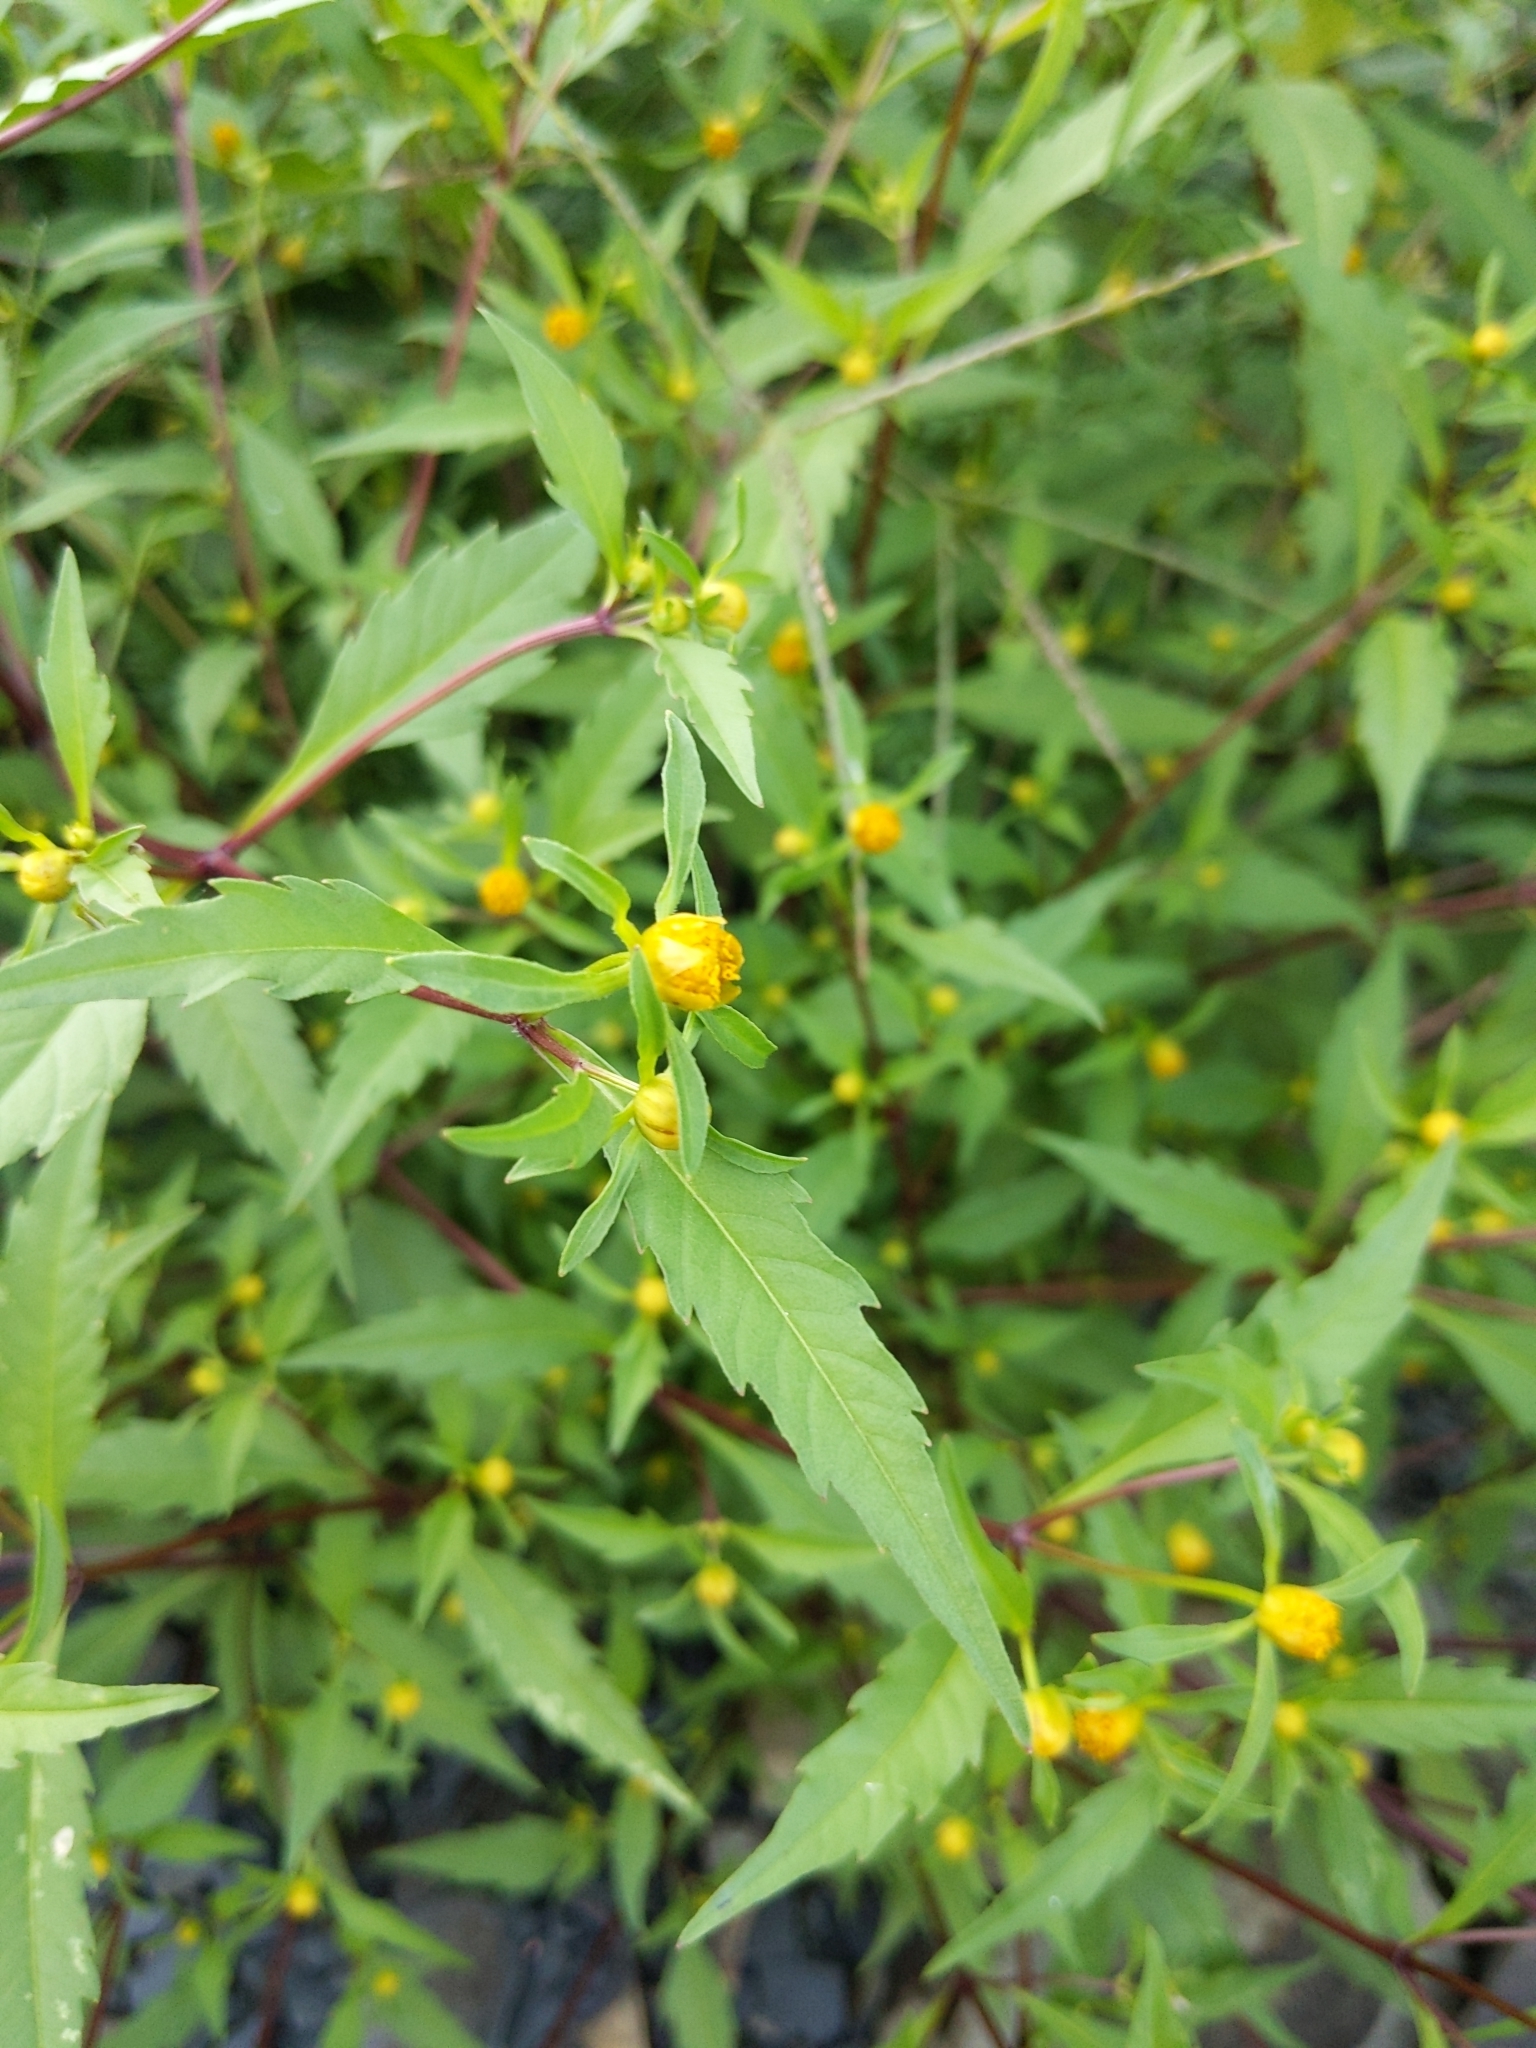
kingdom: Plantae
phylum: Tracheophyta
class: Magnoliopsida
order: Asterales
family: Asteraceae
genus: Bidens
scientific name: Bidens connata
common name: London bur-marigold
